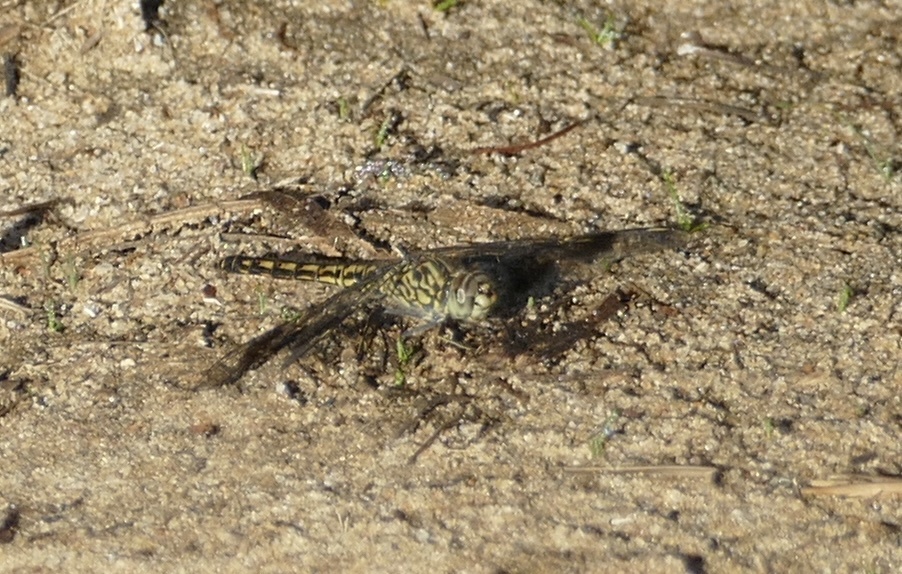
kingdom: Animalia
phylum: Arthropoda
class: Insecta
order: Odonata
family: Libellulidae
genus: Brachythemis
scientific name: Brachythemis leucosticta
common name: Banded groundling
